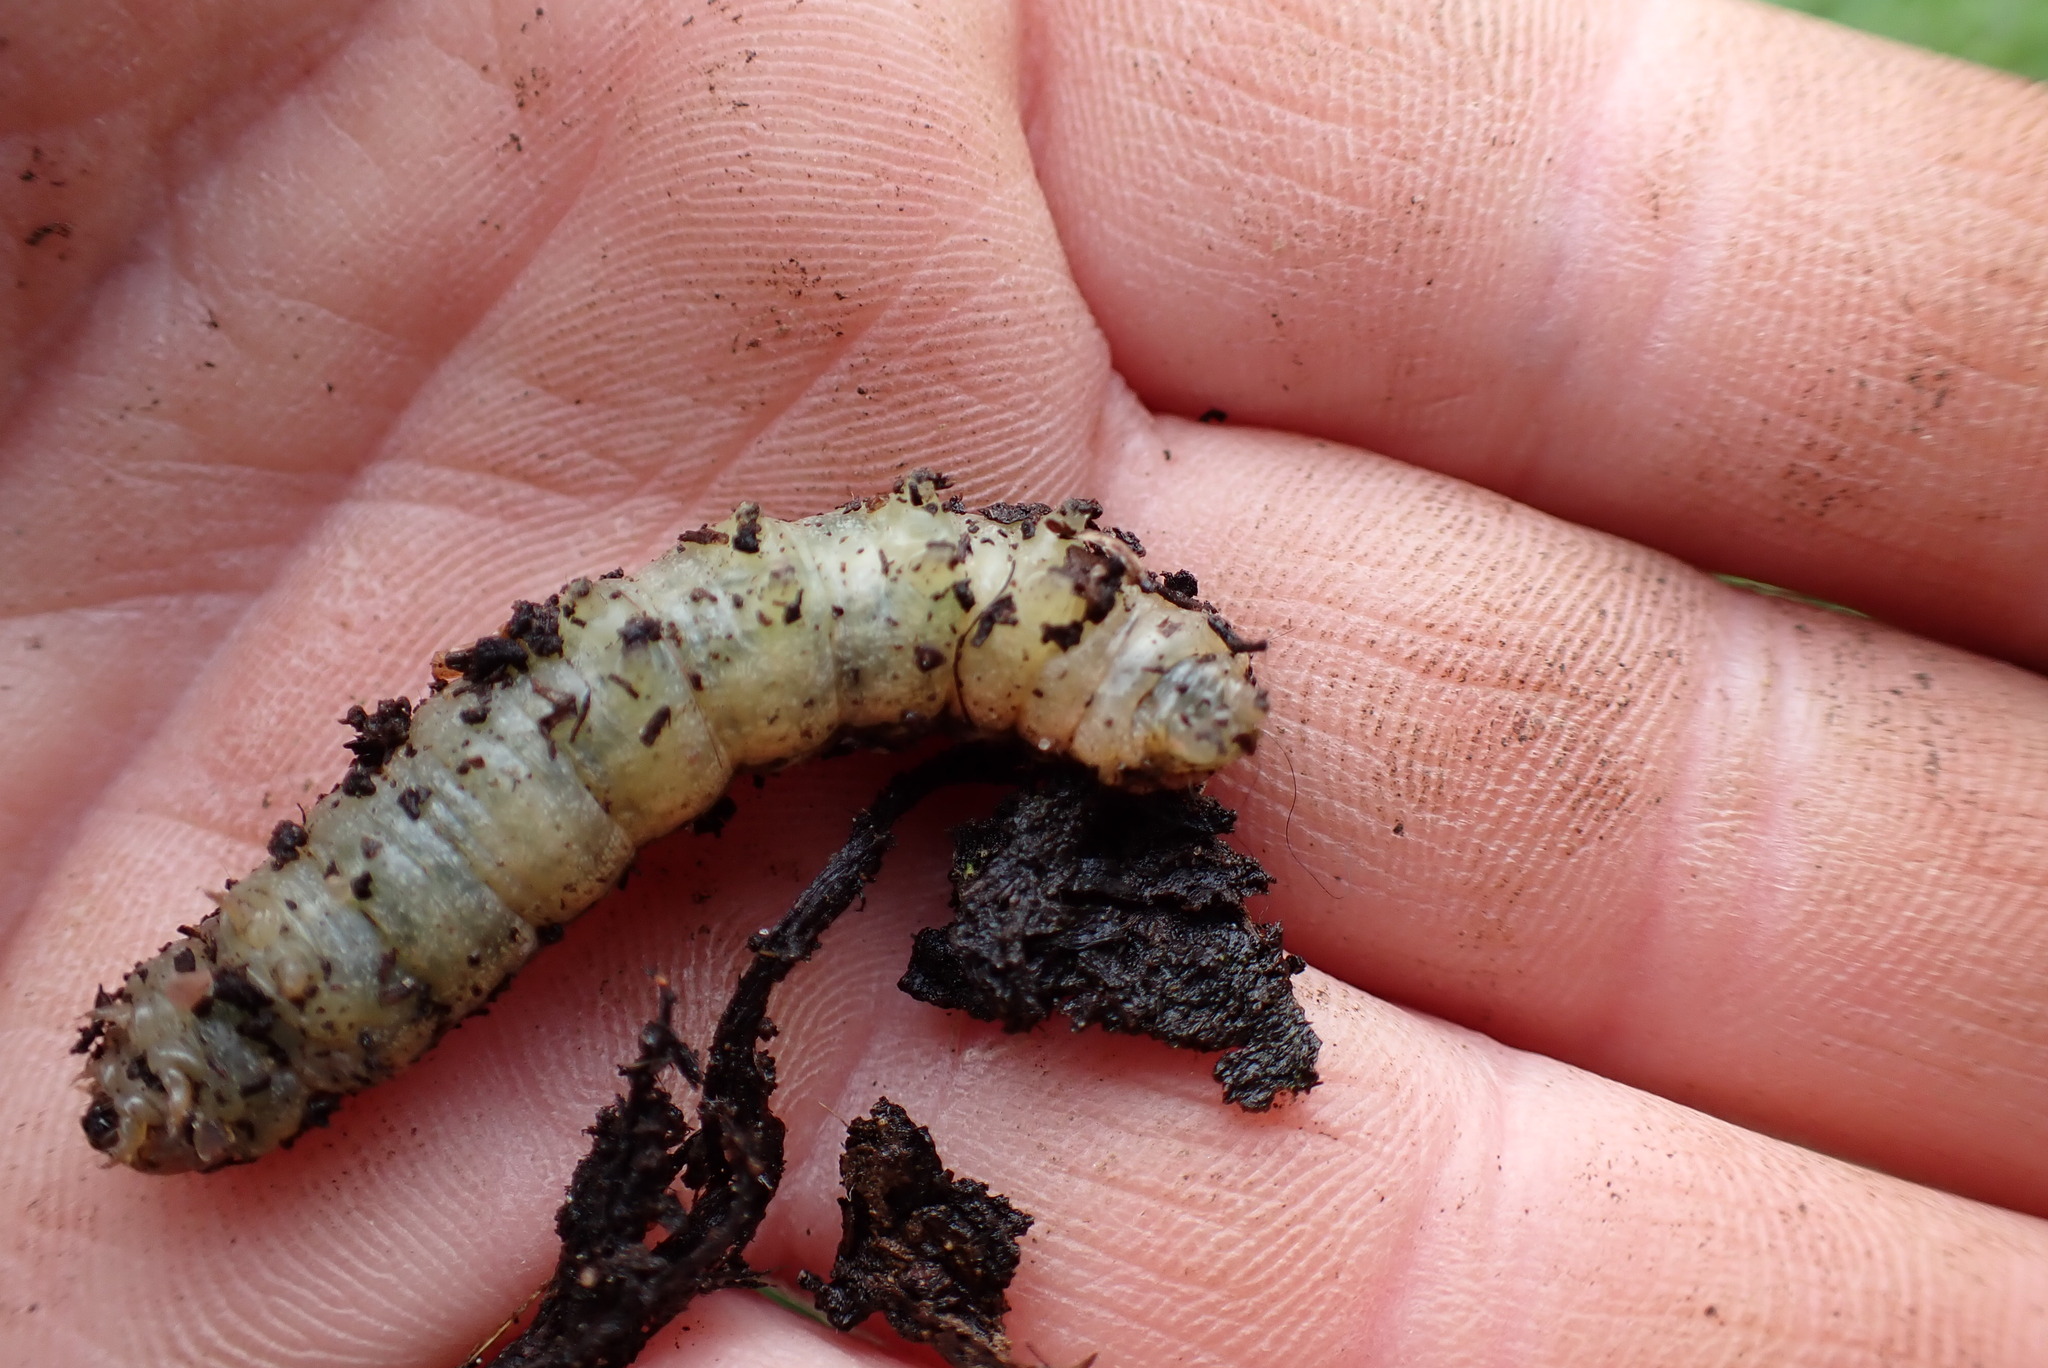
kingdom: Animalia
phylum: Arthropoda
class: Insecta
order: Lepidoptera
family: Noctuidae
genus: Noctua
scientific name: Noctua pronuba
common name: Large yellow underwing
